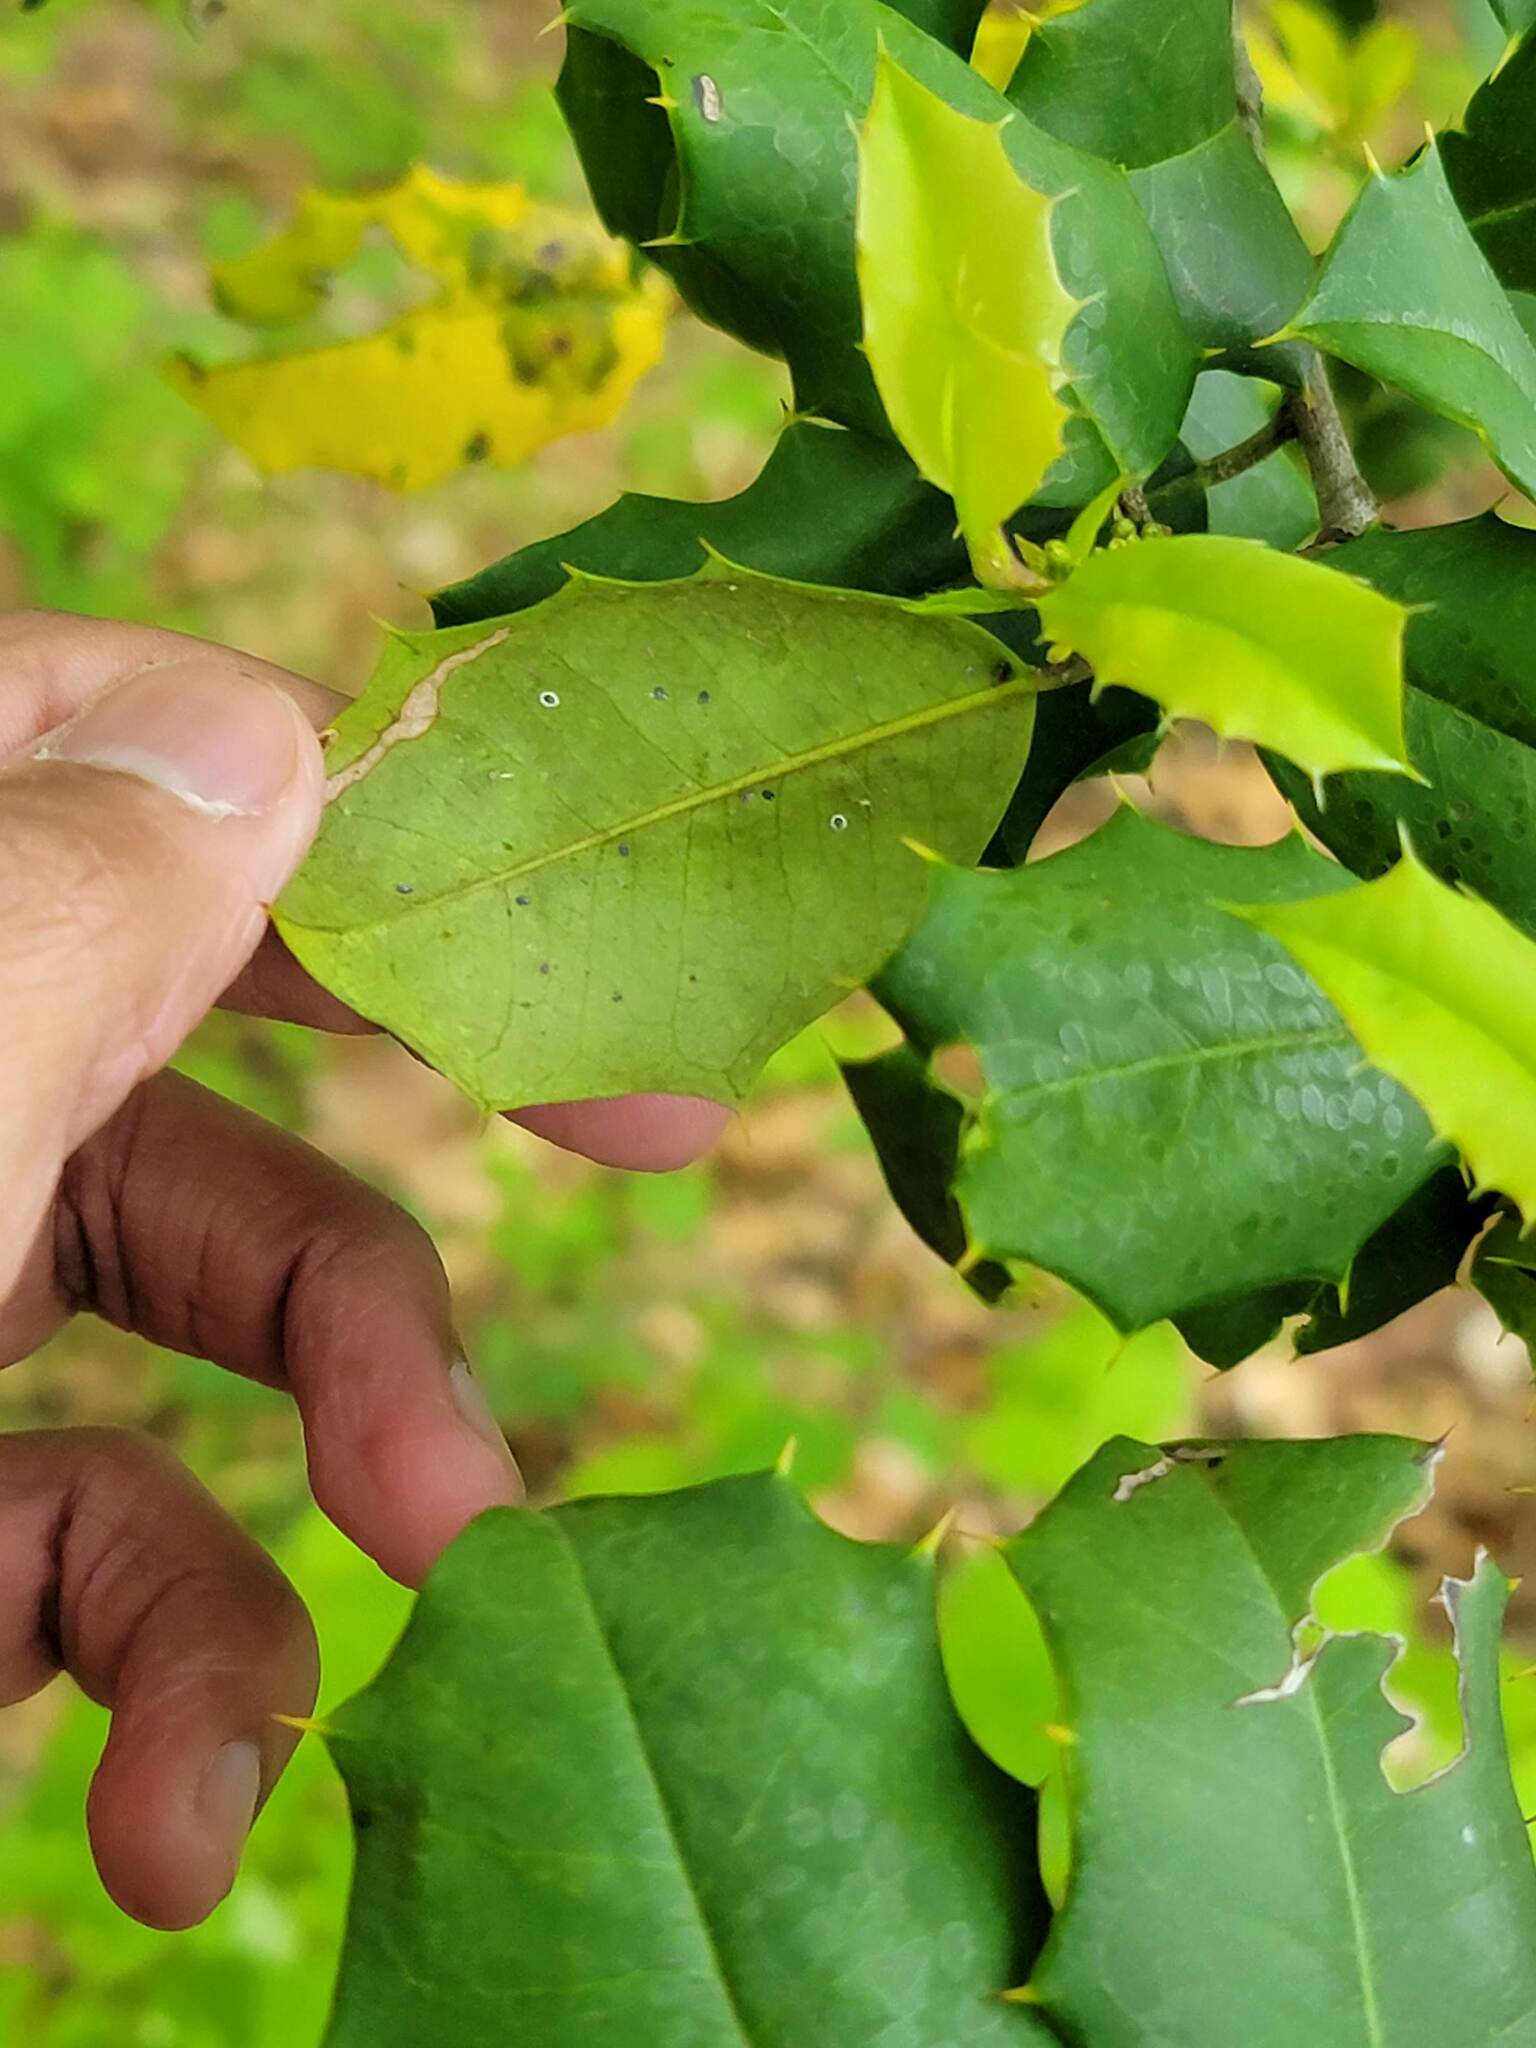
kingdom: Animalia
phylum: Arthropoda
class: Insecta
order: Diptera
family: Agromyzidae
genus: Phytomyza
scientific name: Phytomyza opacae
